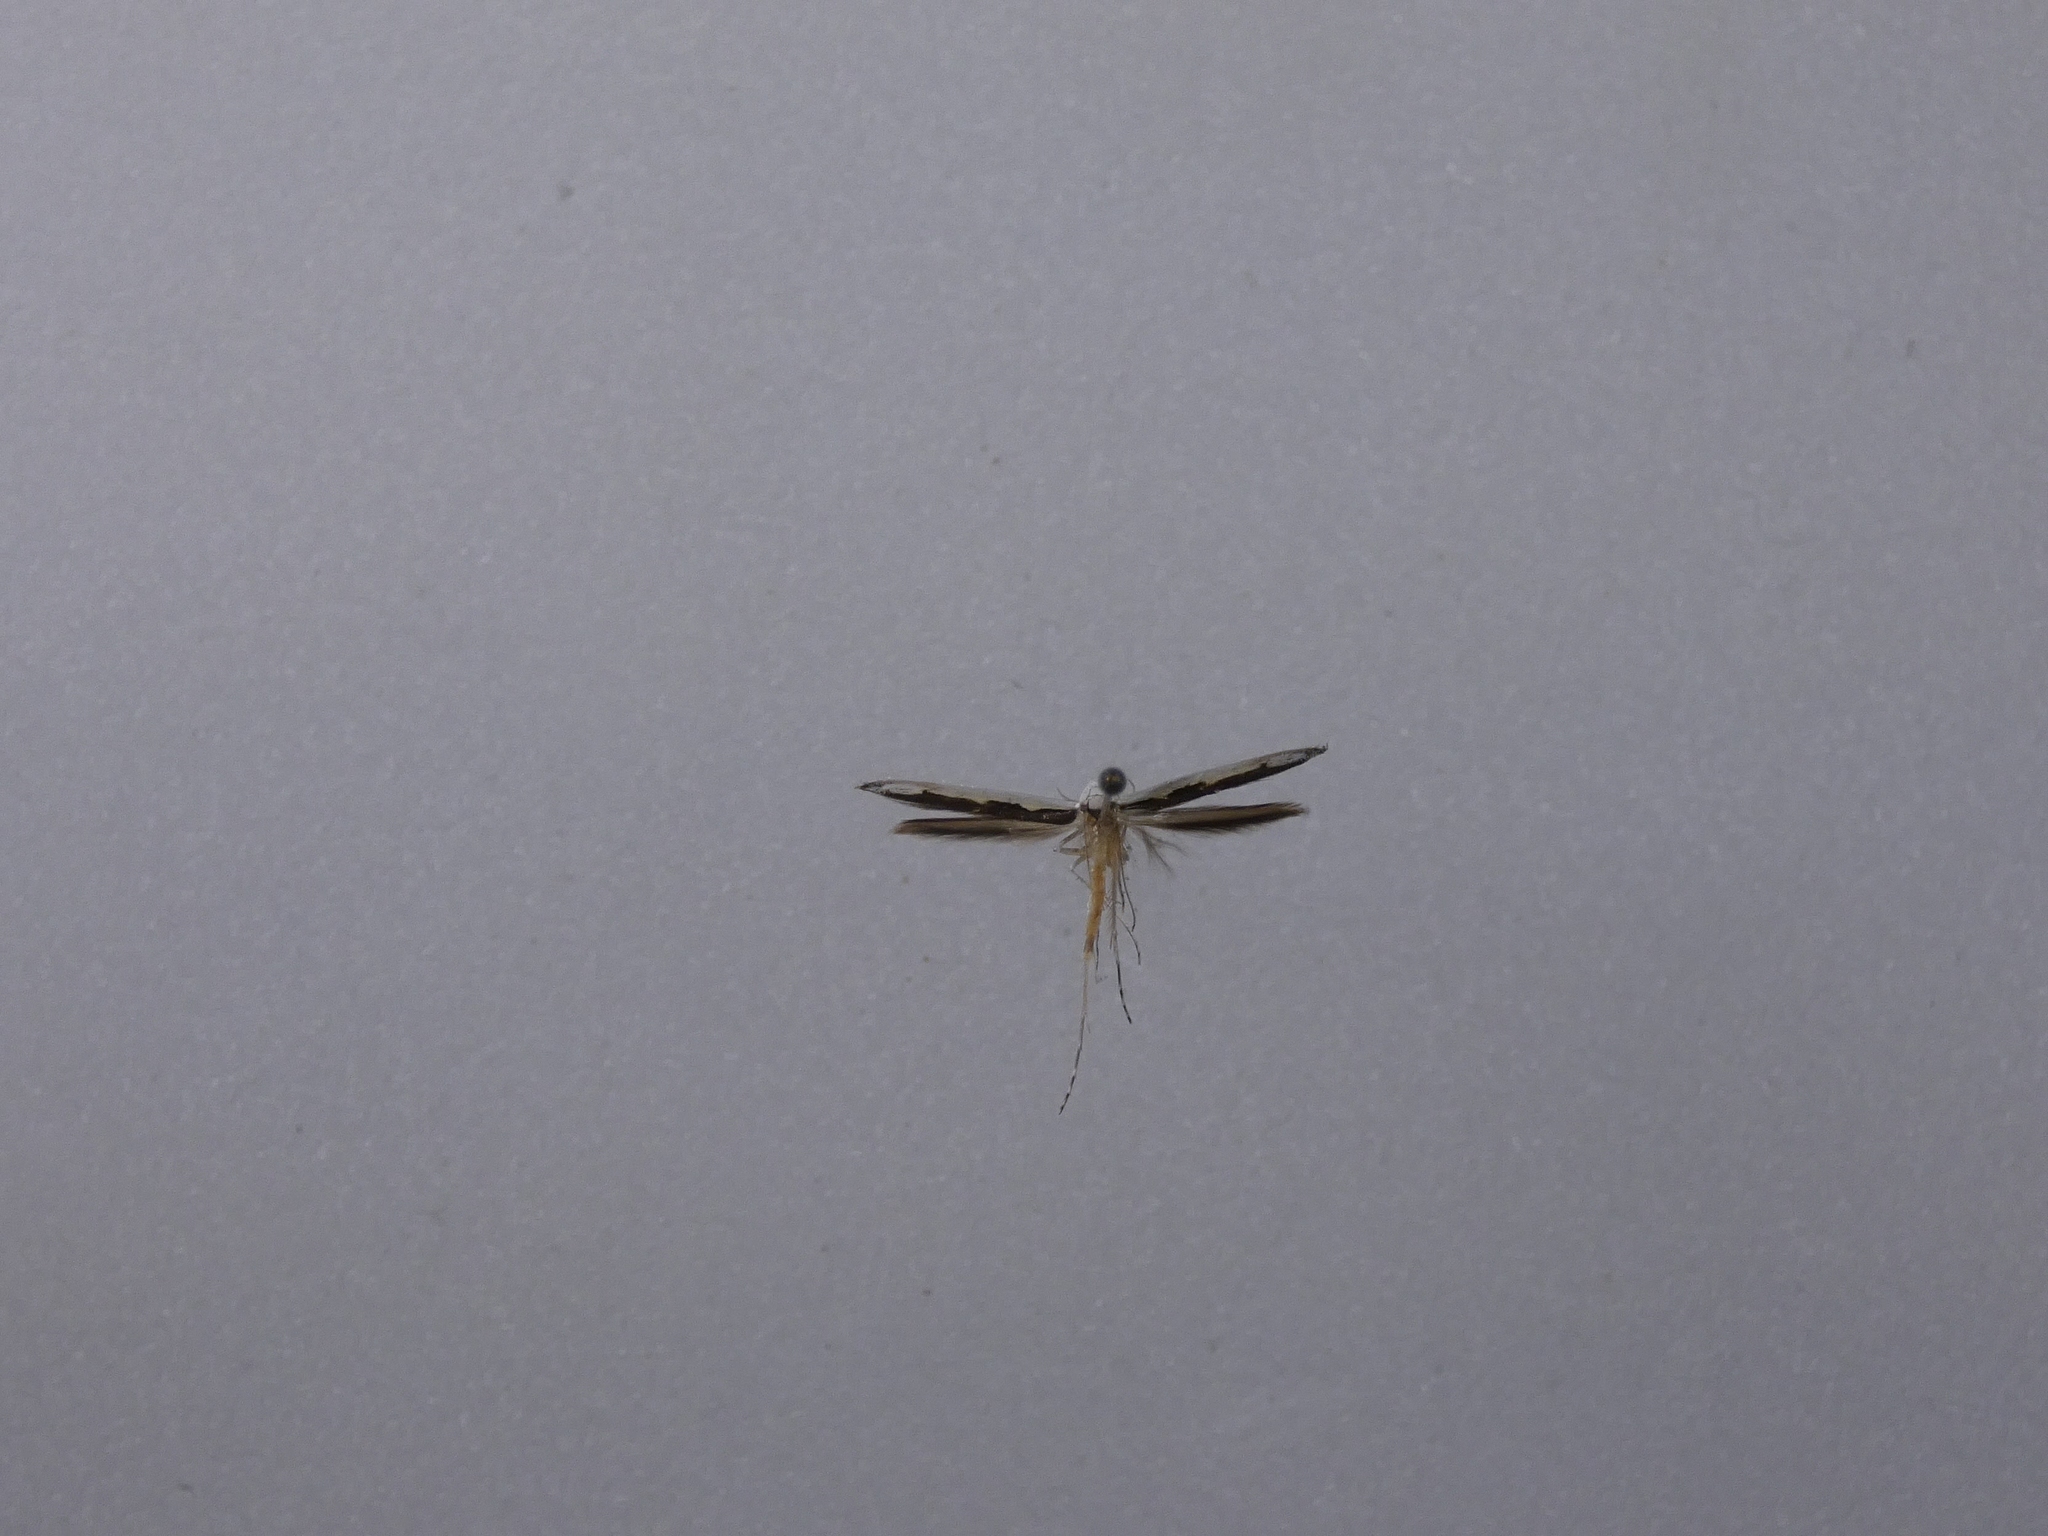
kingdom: Animalia
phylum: Arthropoda
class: Insecta
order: Lepidoptera
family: Roeslerstammiidae
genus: Vanicela
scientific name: Vanicela disjunctella
